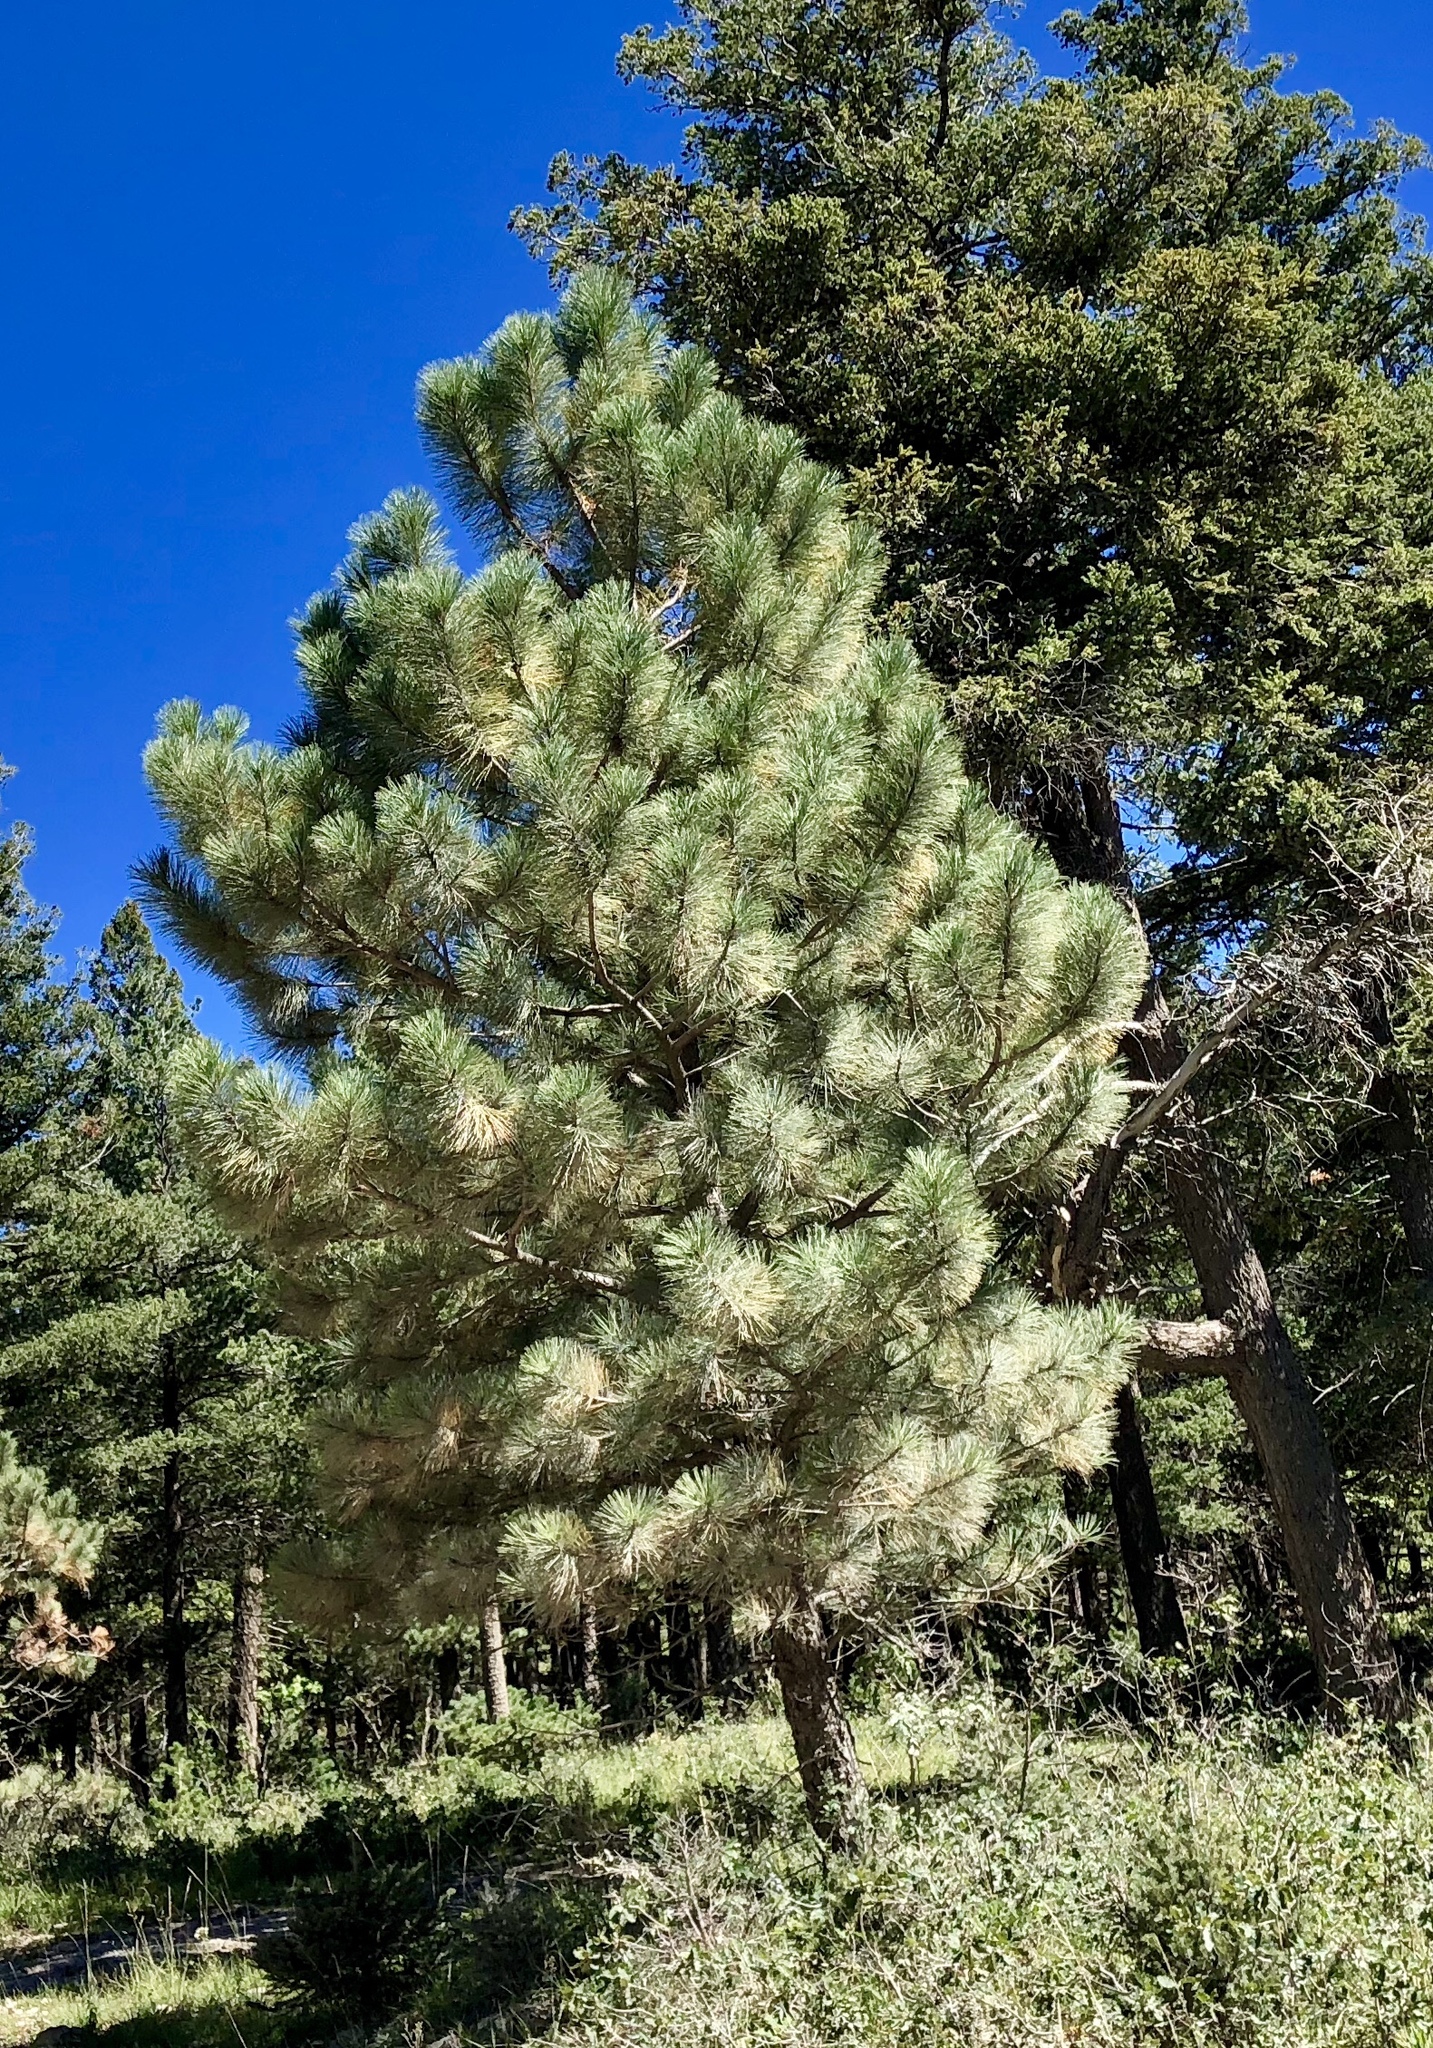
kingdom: Plantae
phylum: Tracheophyta
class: Pinopsida
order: Pinales
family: Pinaceae
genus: Pinus
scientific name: Pinus ponderosa
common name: Western yellow-pine
